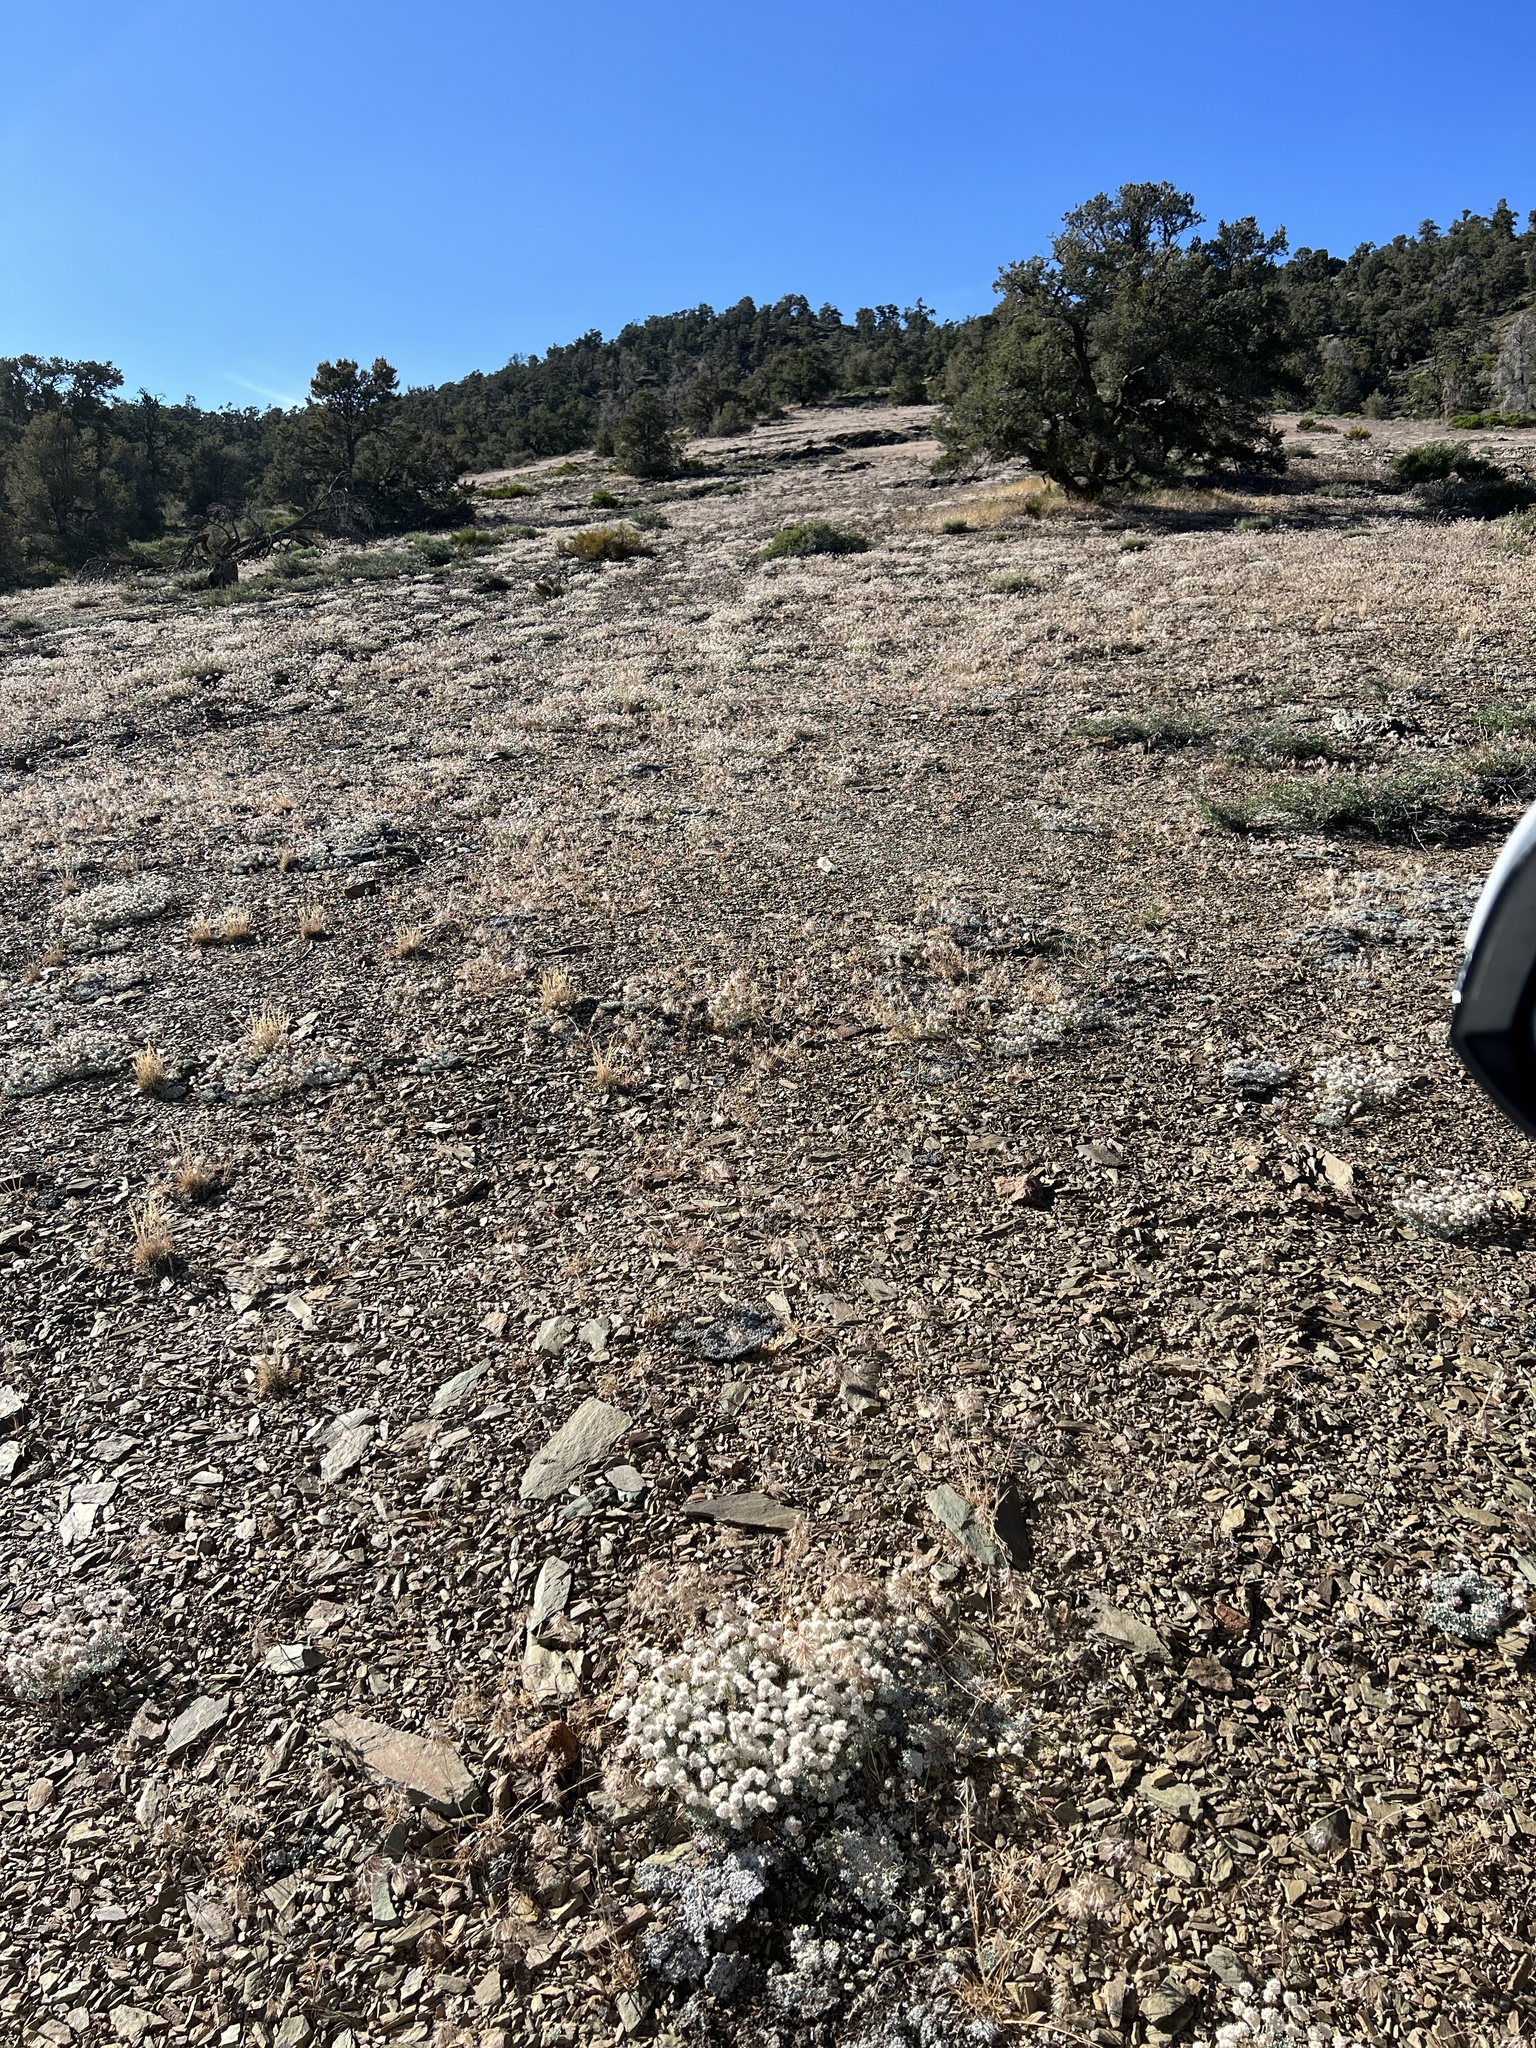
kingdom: Plantae
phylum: Tracheophyta
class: Magnoliopsida
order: Caryophyllales
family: Polygonaceae
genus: Eriogonum
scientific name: Eriogonum kennedyi
